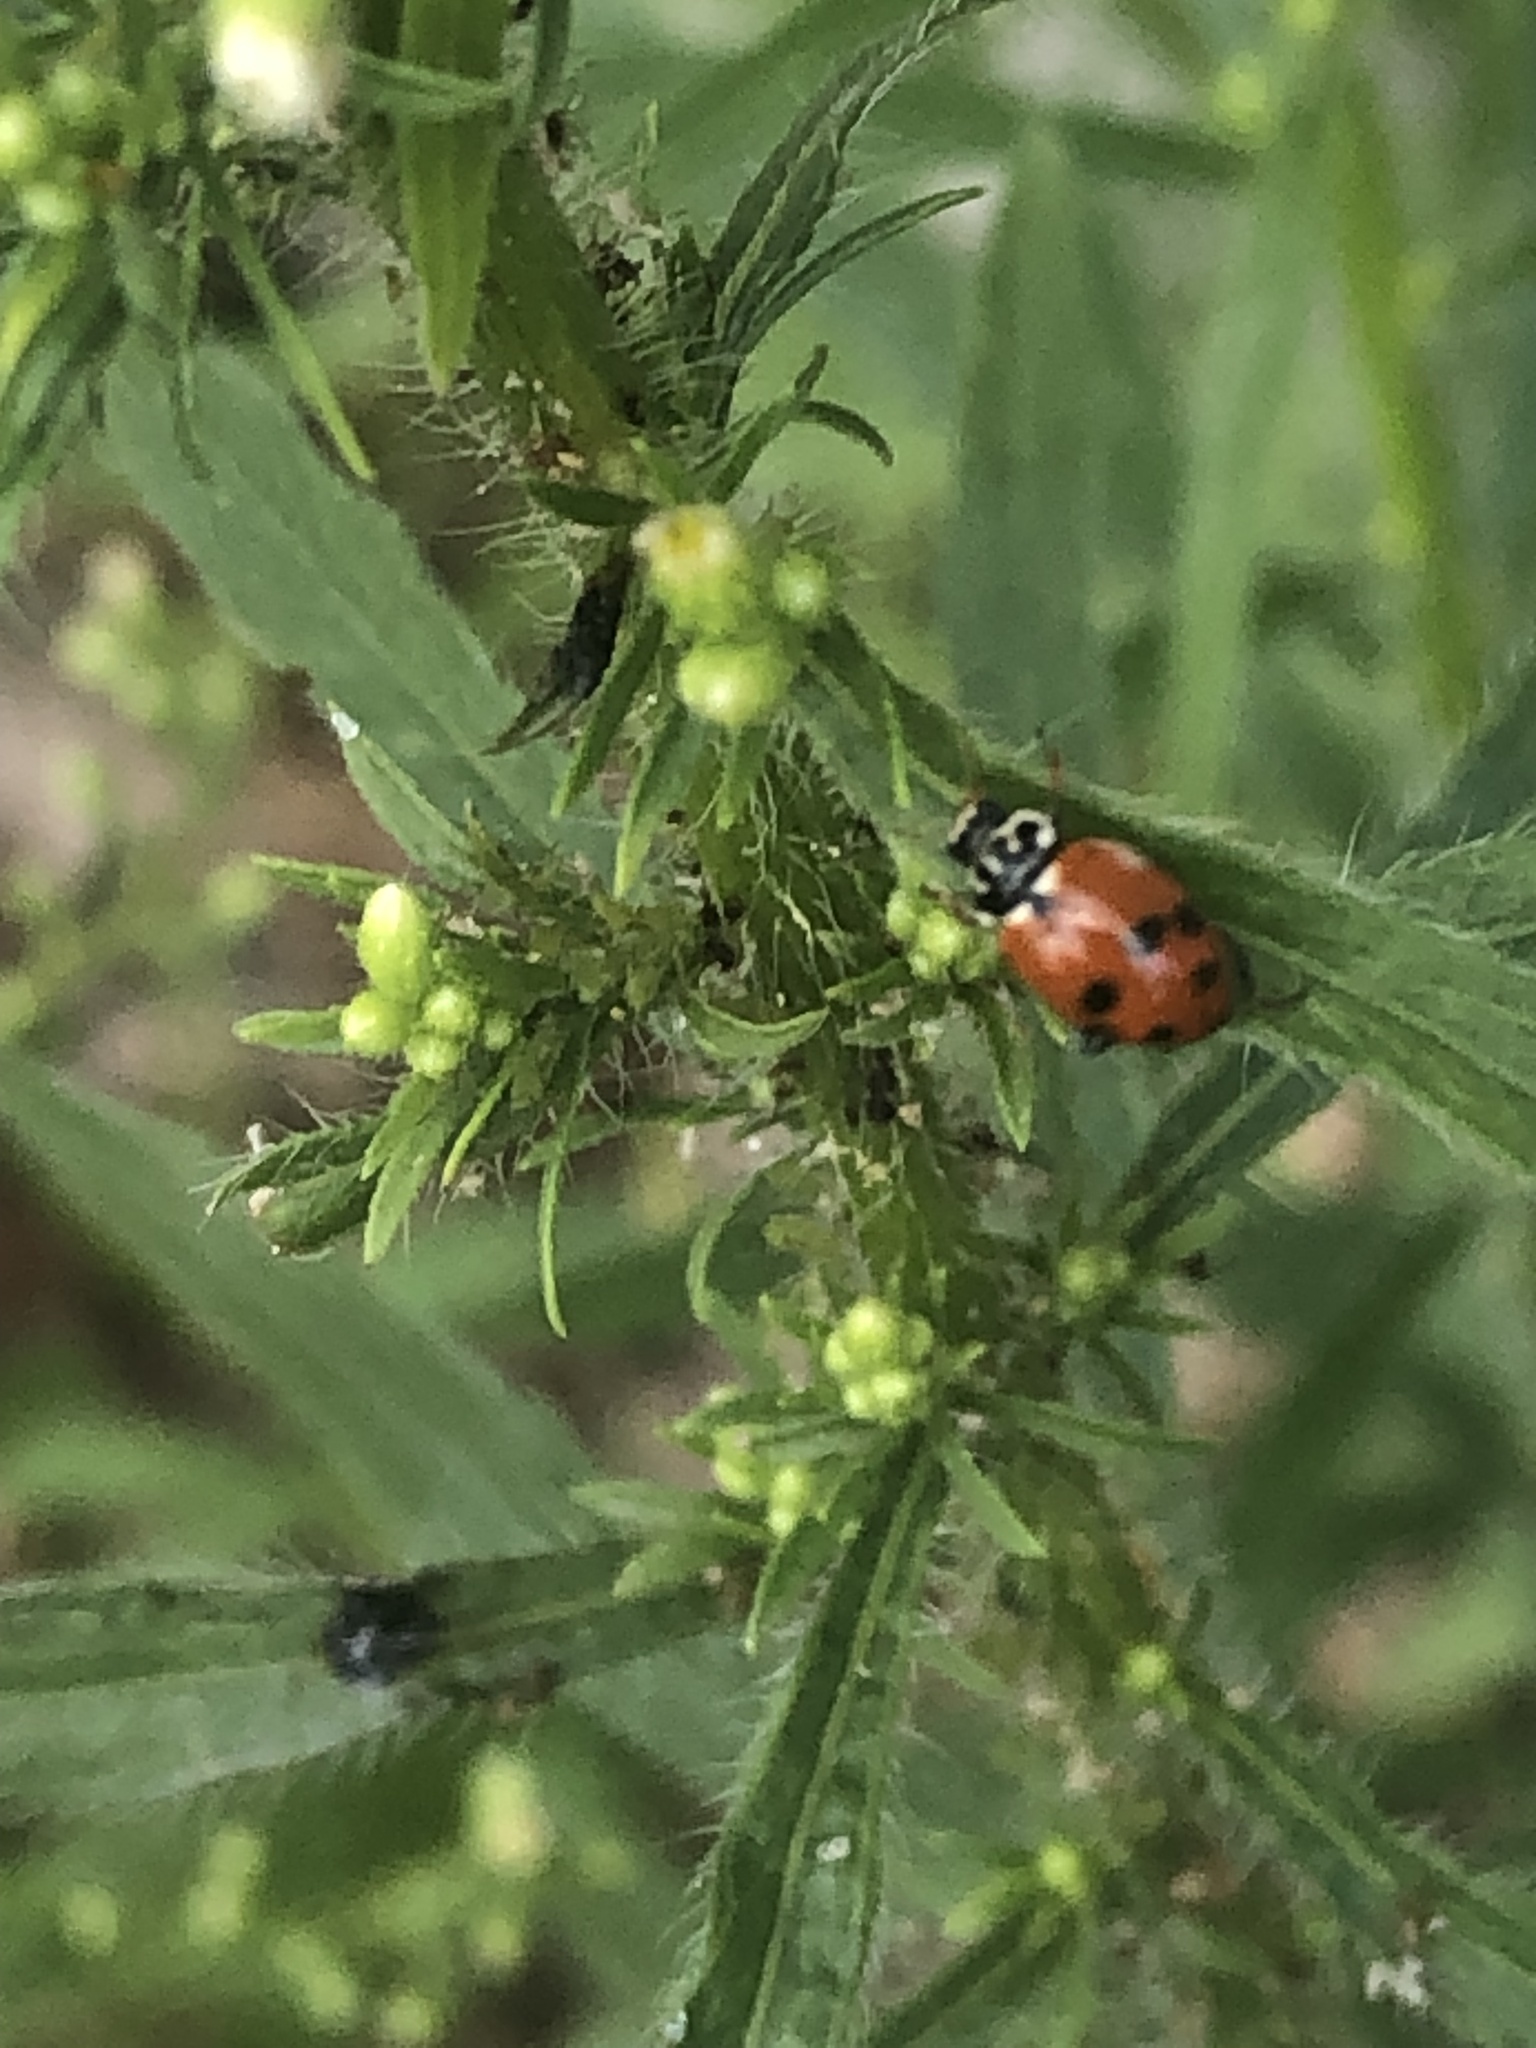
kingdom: Animalia
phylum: Arthropoda
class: Insecta
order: Coleoptera
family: Coccinellidae
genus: Hippodamia
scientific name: Hippodamia variegata
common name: Ladybird beetle
